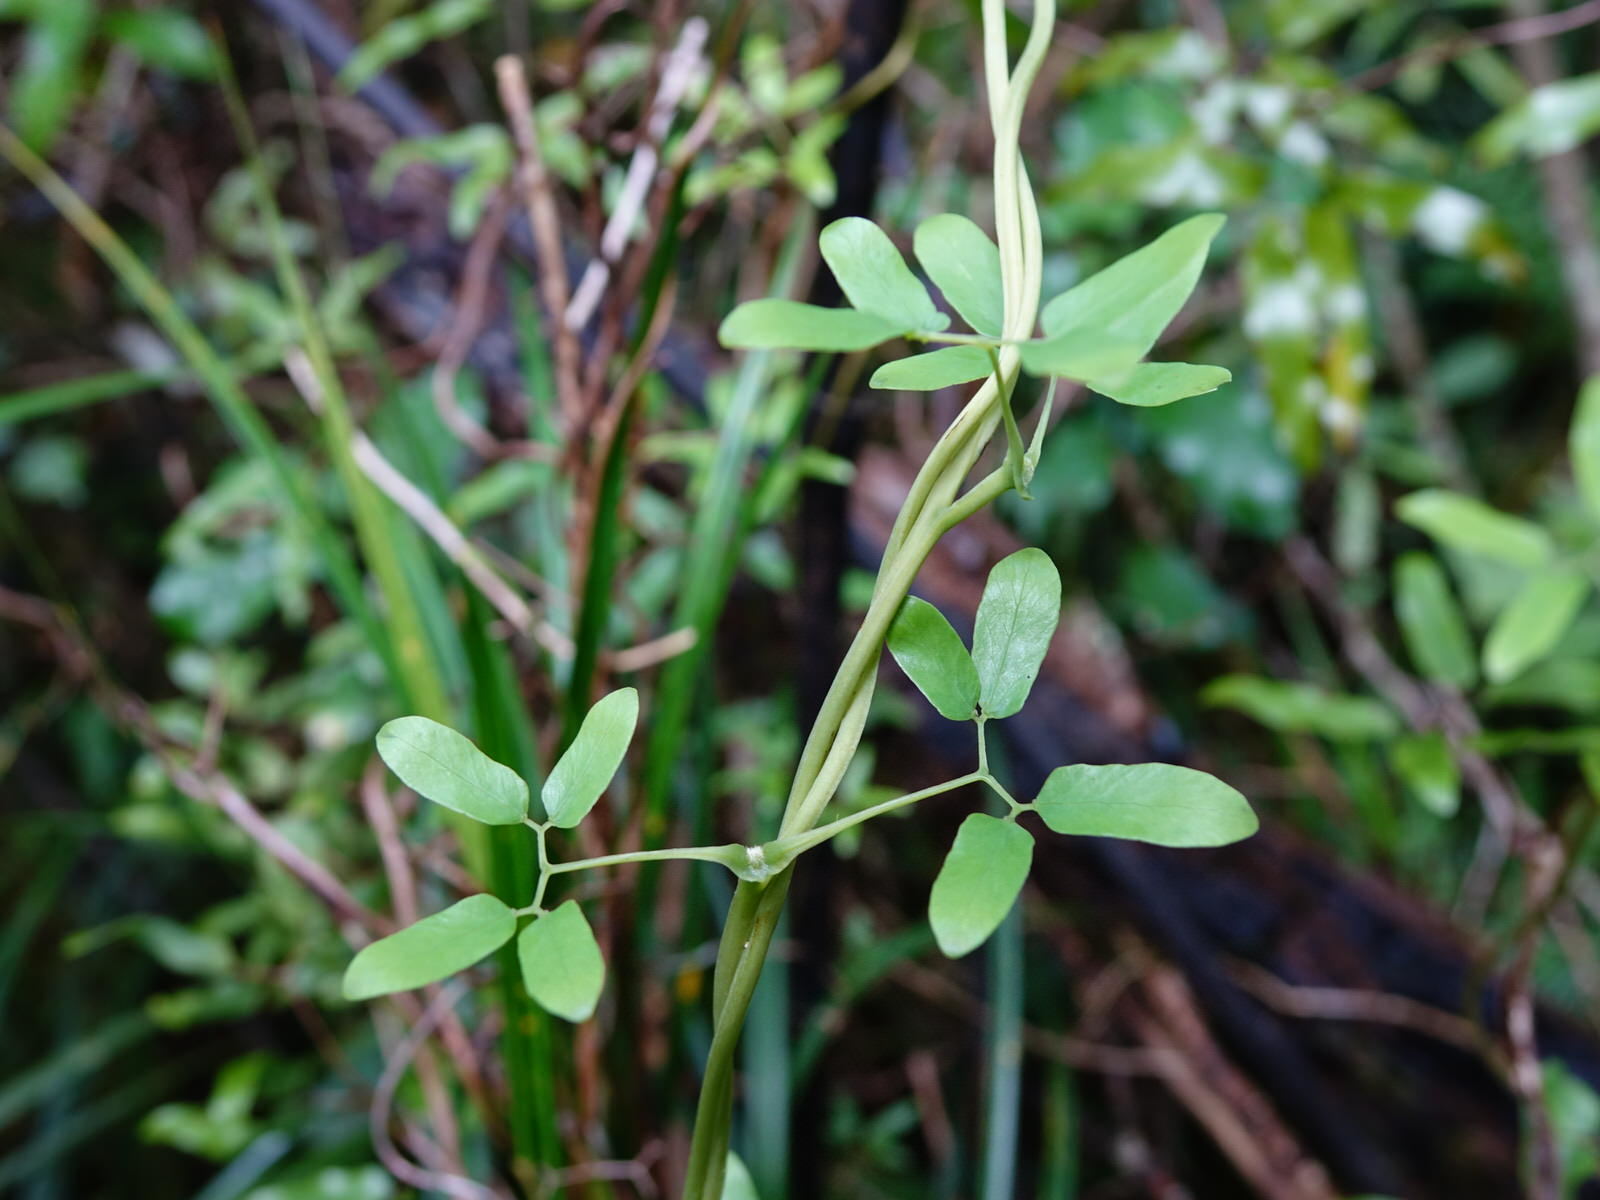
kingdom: Plantae
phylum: Tracheophyta
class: Polypodiopsida
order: Schizaeales
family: Lygodiaceae
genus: Lygodium
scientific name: Lygodium articulatum
